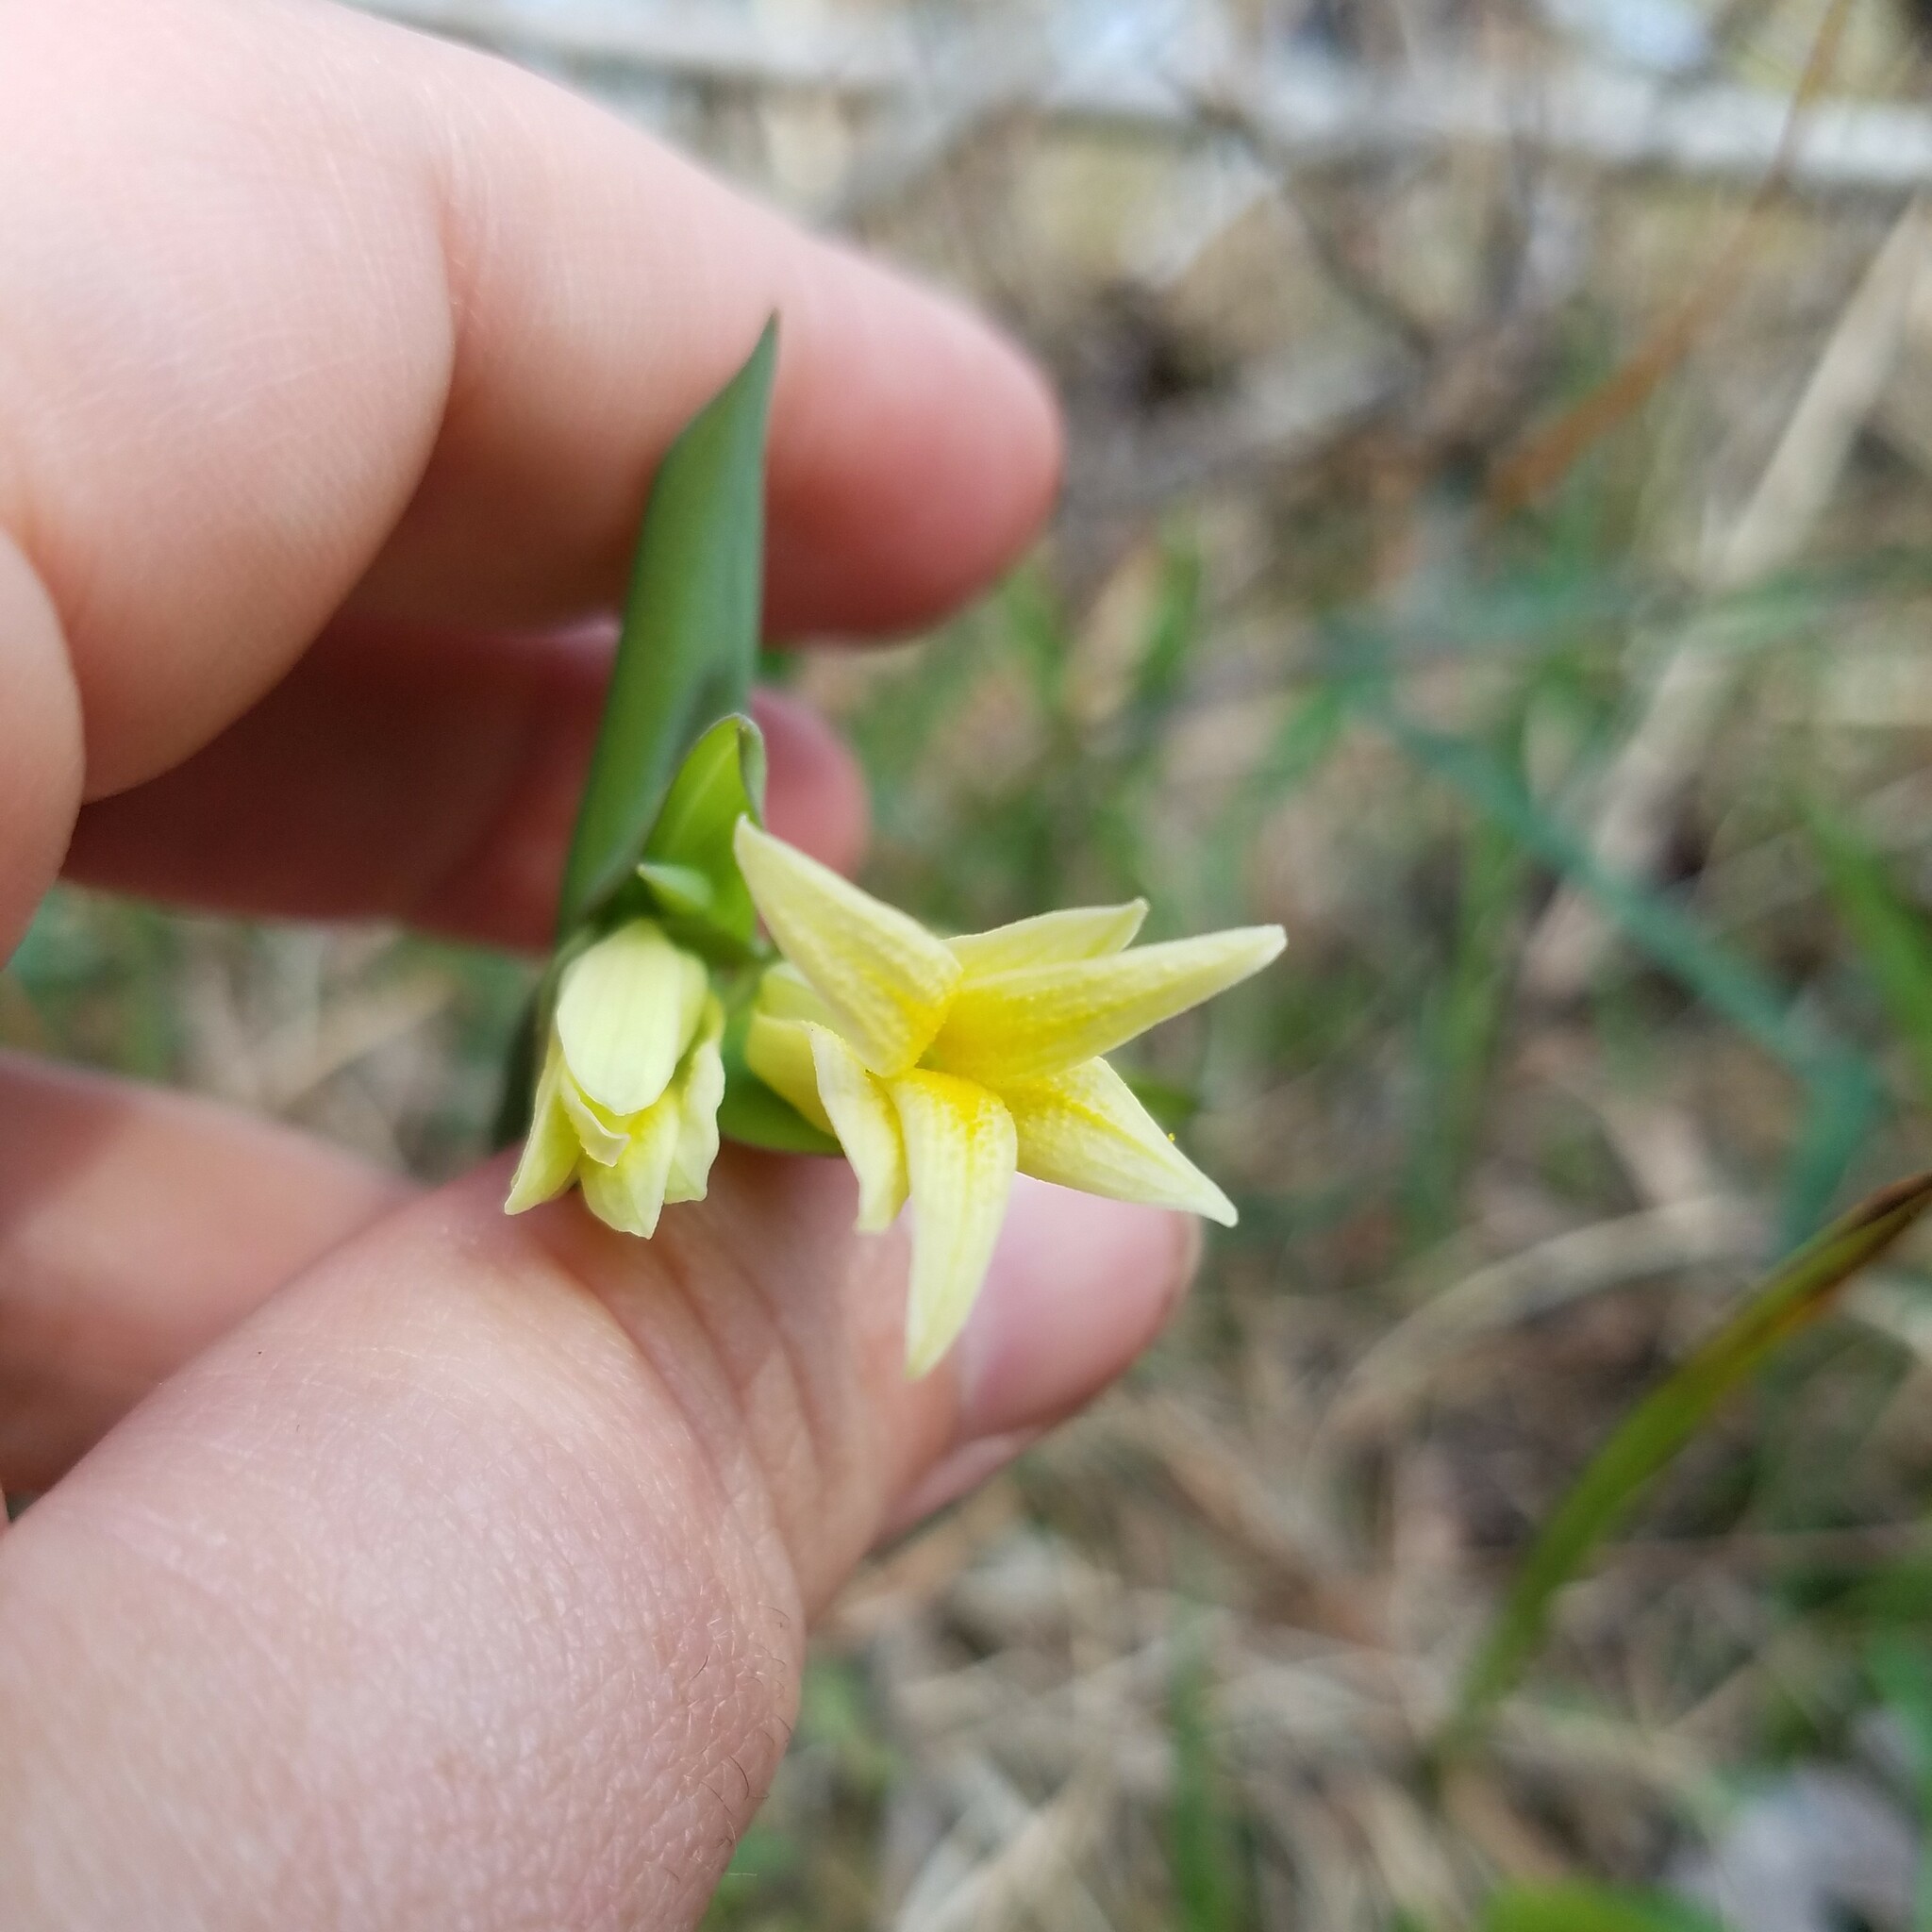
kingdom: Plantae
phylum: Tracheophyta
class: Liliopsida
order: Liliales
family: Colchicaceae
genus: Uvularia
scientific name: Uvularia perfoliata
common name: Perfoliate bellwort
